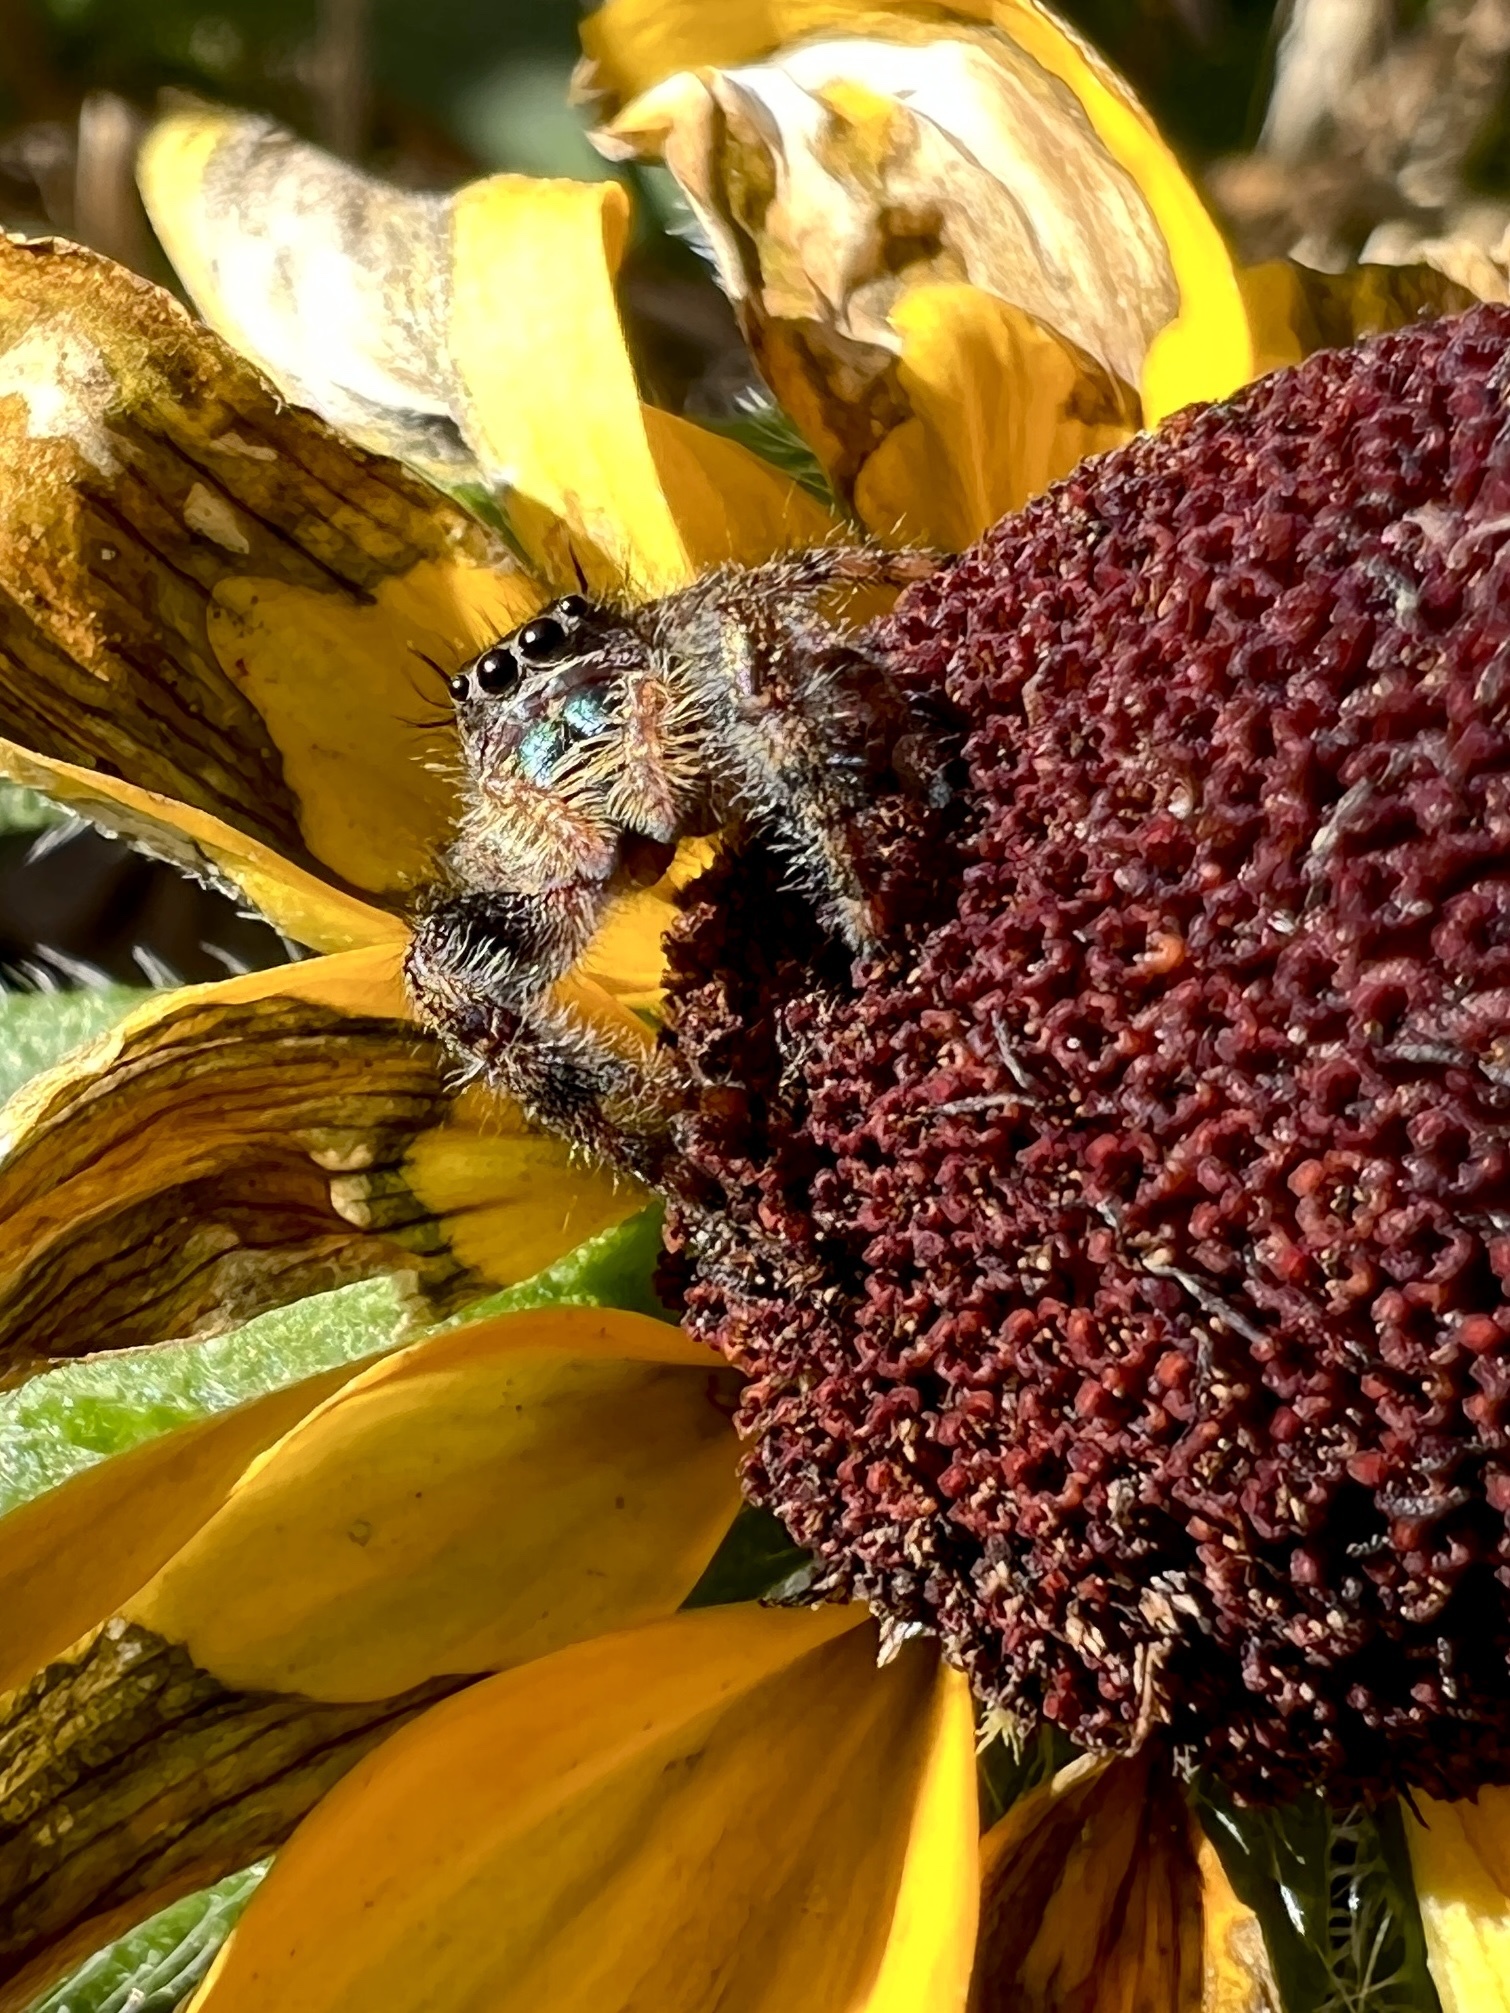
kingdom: Animalia
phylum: Arthropoda
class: Arachnida
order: Araneae
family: Salticidae
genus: Phidippus
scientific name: Phidippus audax
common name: Bold jumper
